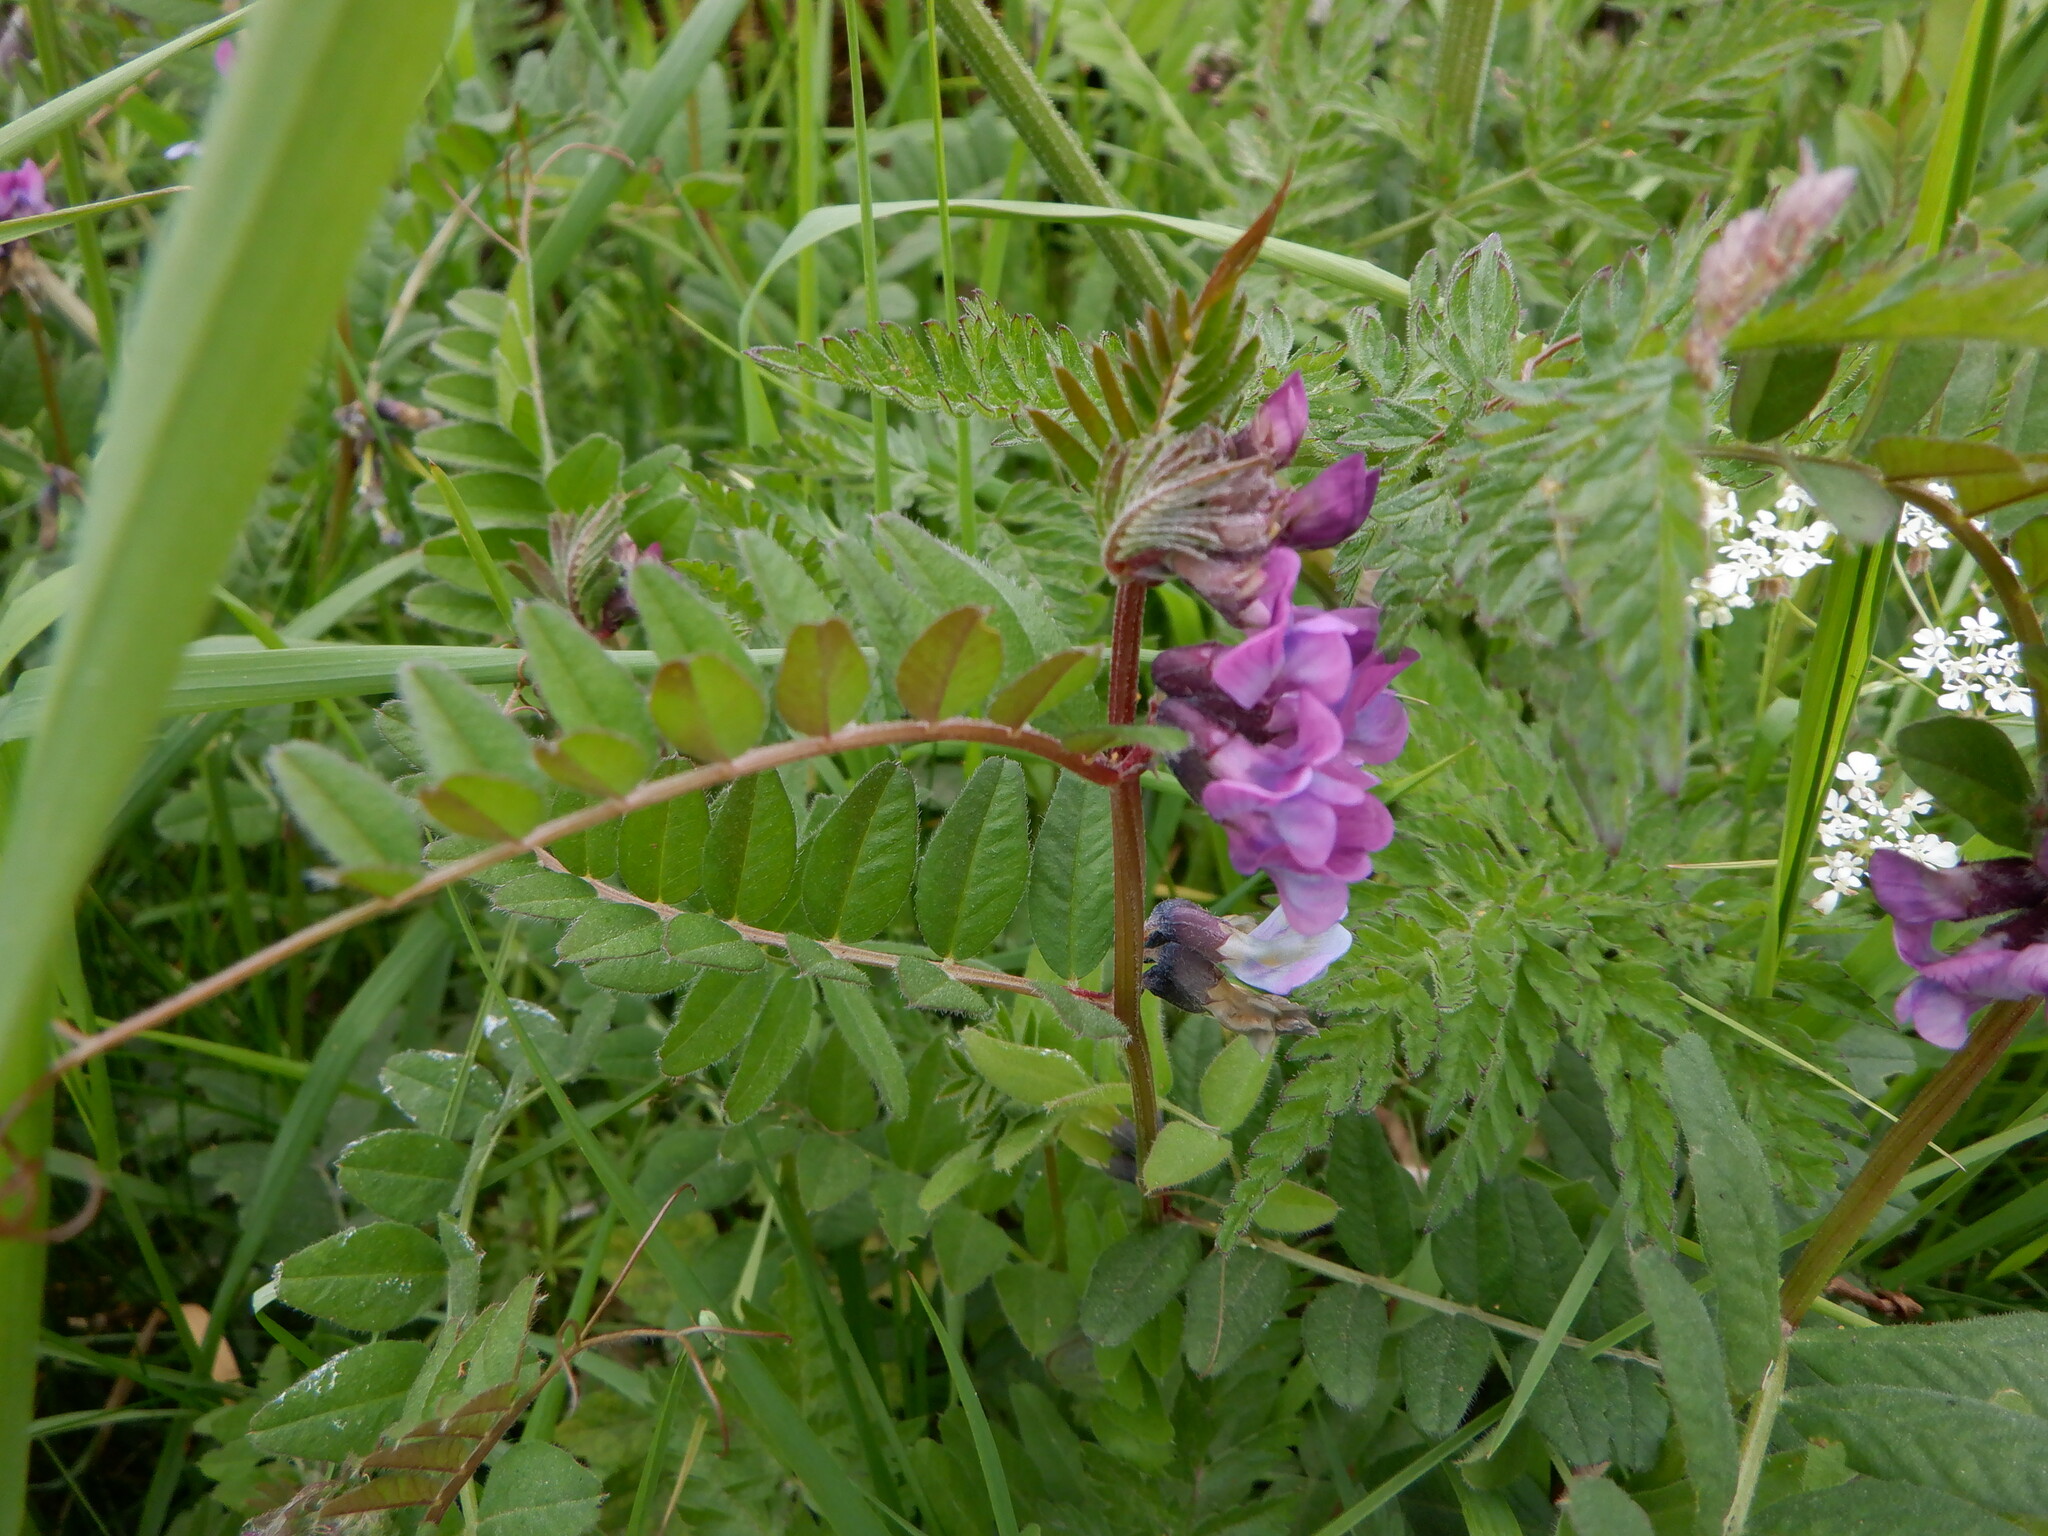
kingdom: Plantae
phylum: Tracheophyta
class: Magnoliopsida
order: Fabales
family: Fabaceae
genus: Vicia
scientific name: Vicia sepium
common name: Bush vetch
